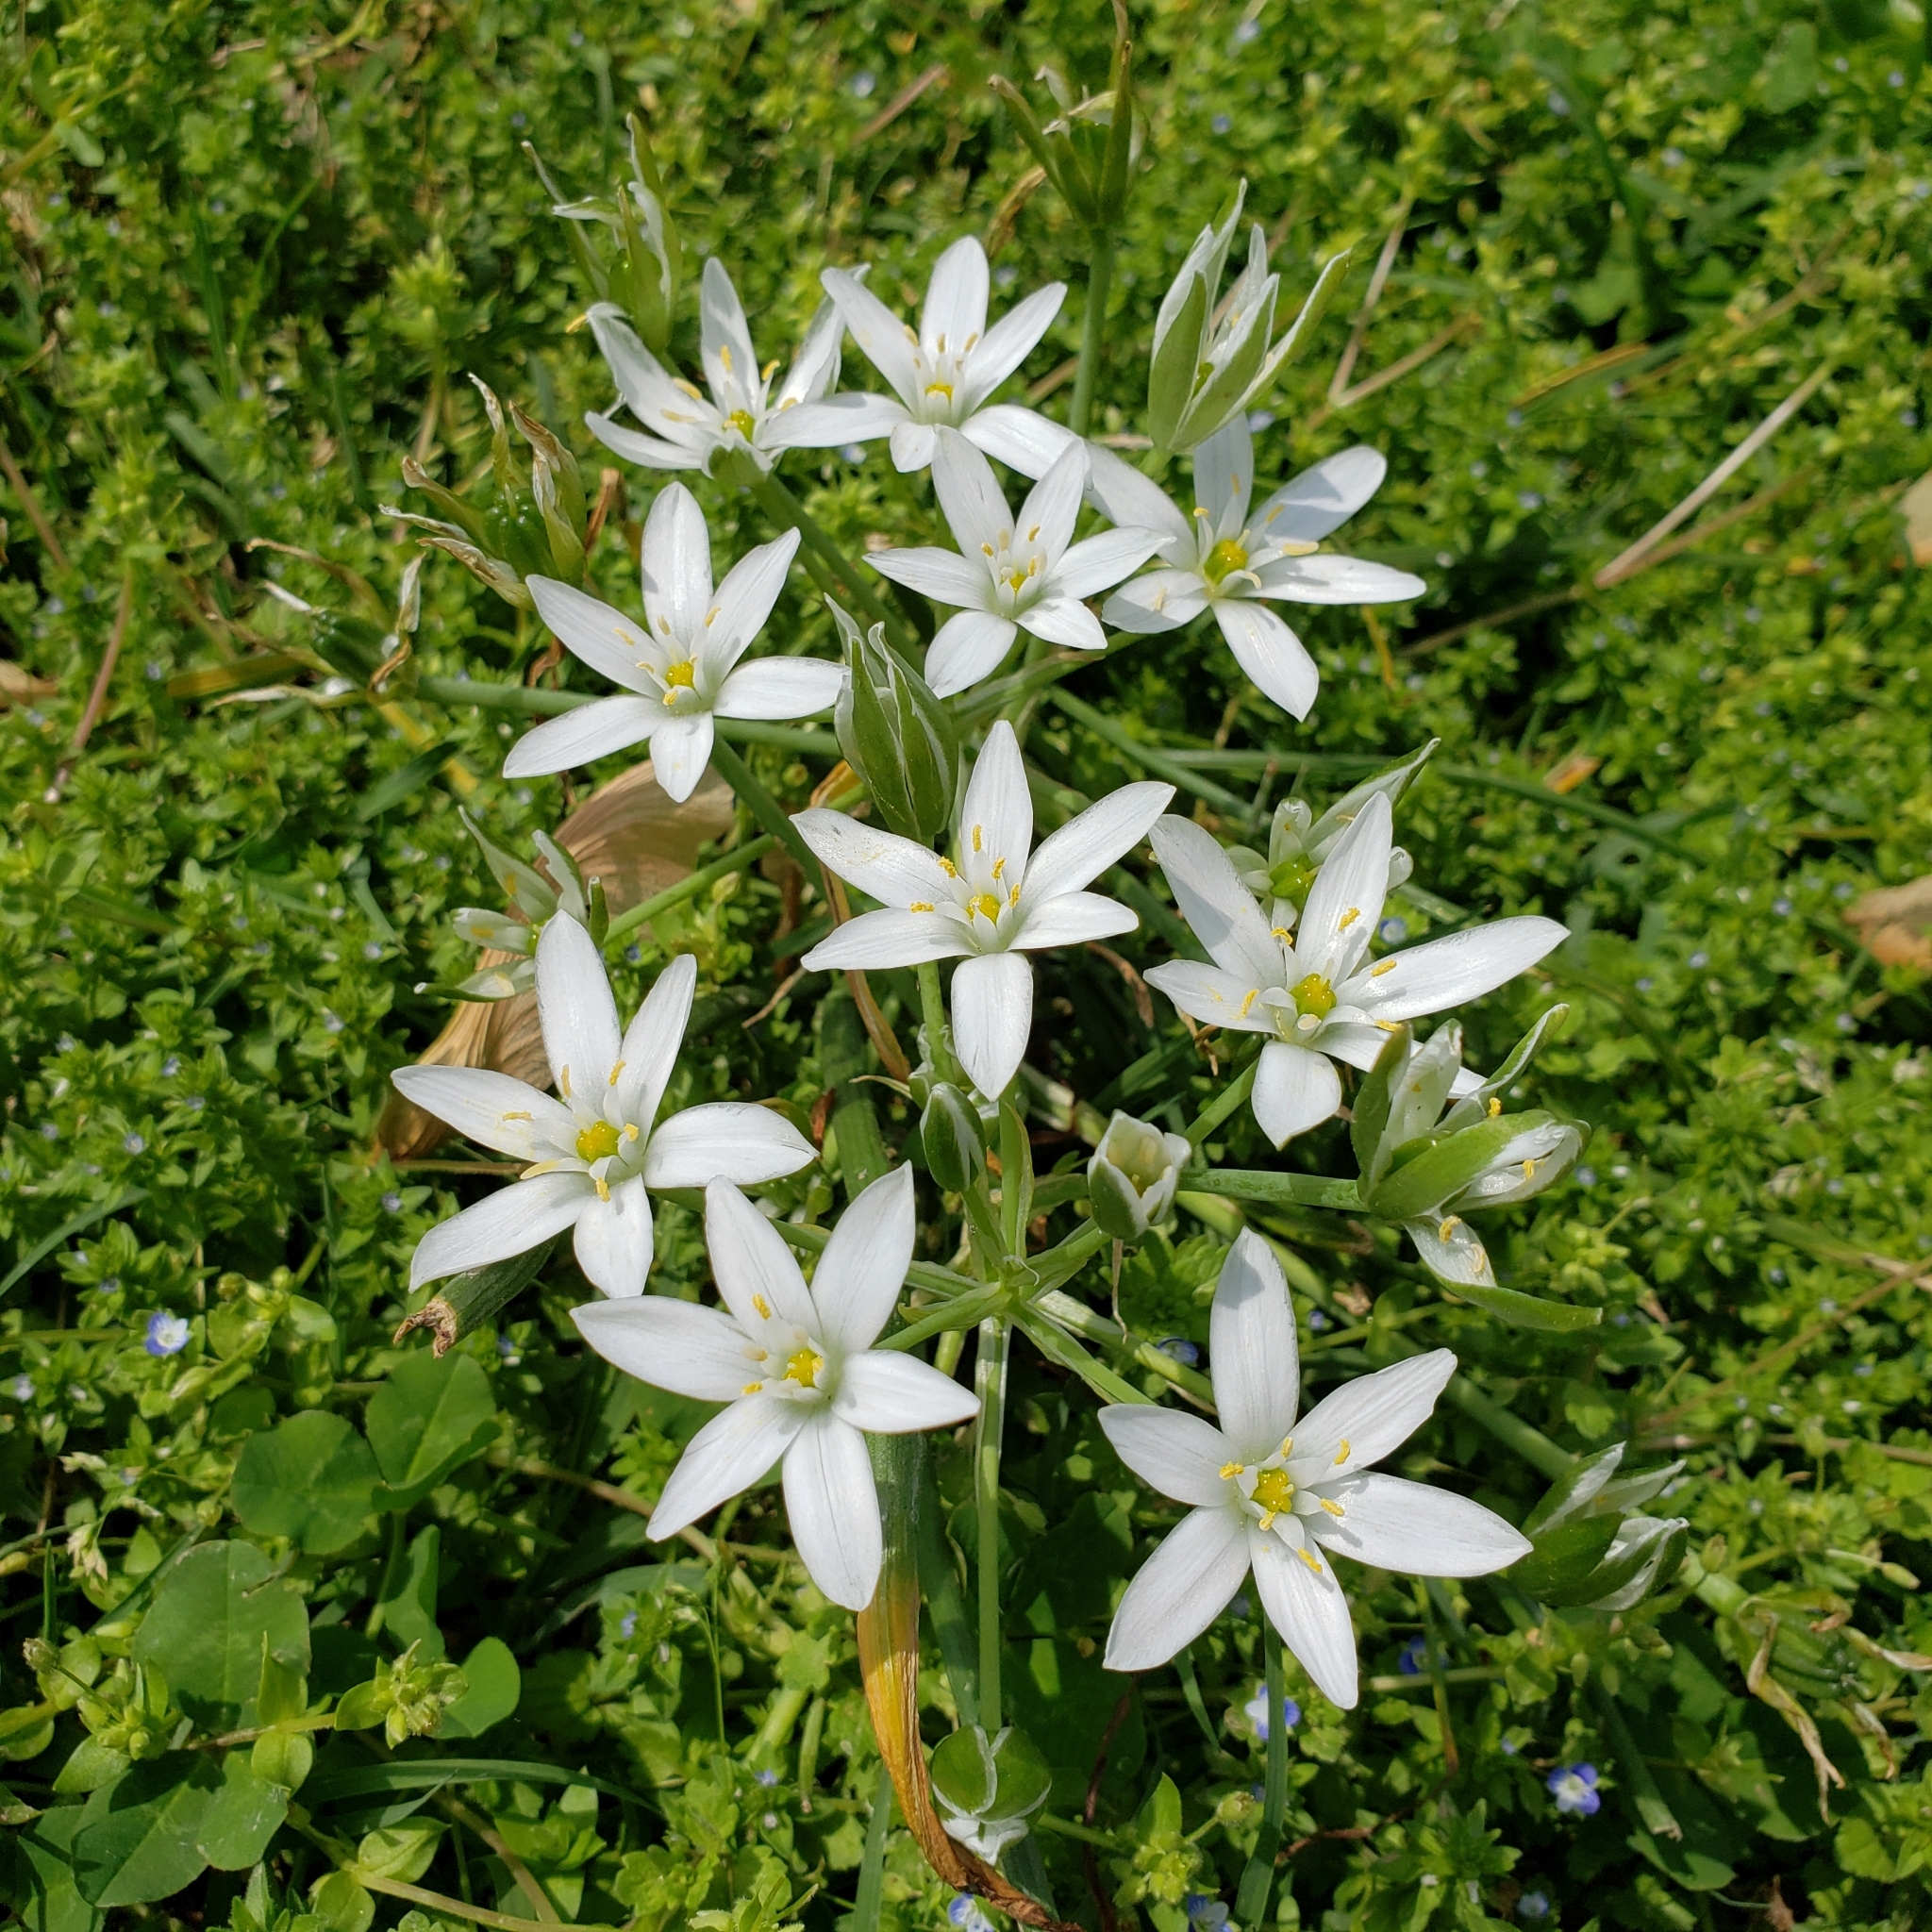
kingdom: Plantae
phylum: Tracheophyta
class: Liliopsida
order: Asparagales
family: Asparagaceae
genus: Ornithogalum
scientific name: Ornithogalum umbellatum
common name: Garden star-of-bethlehem
